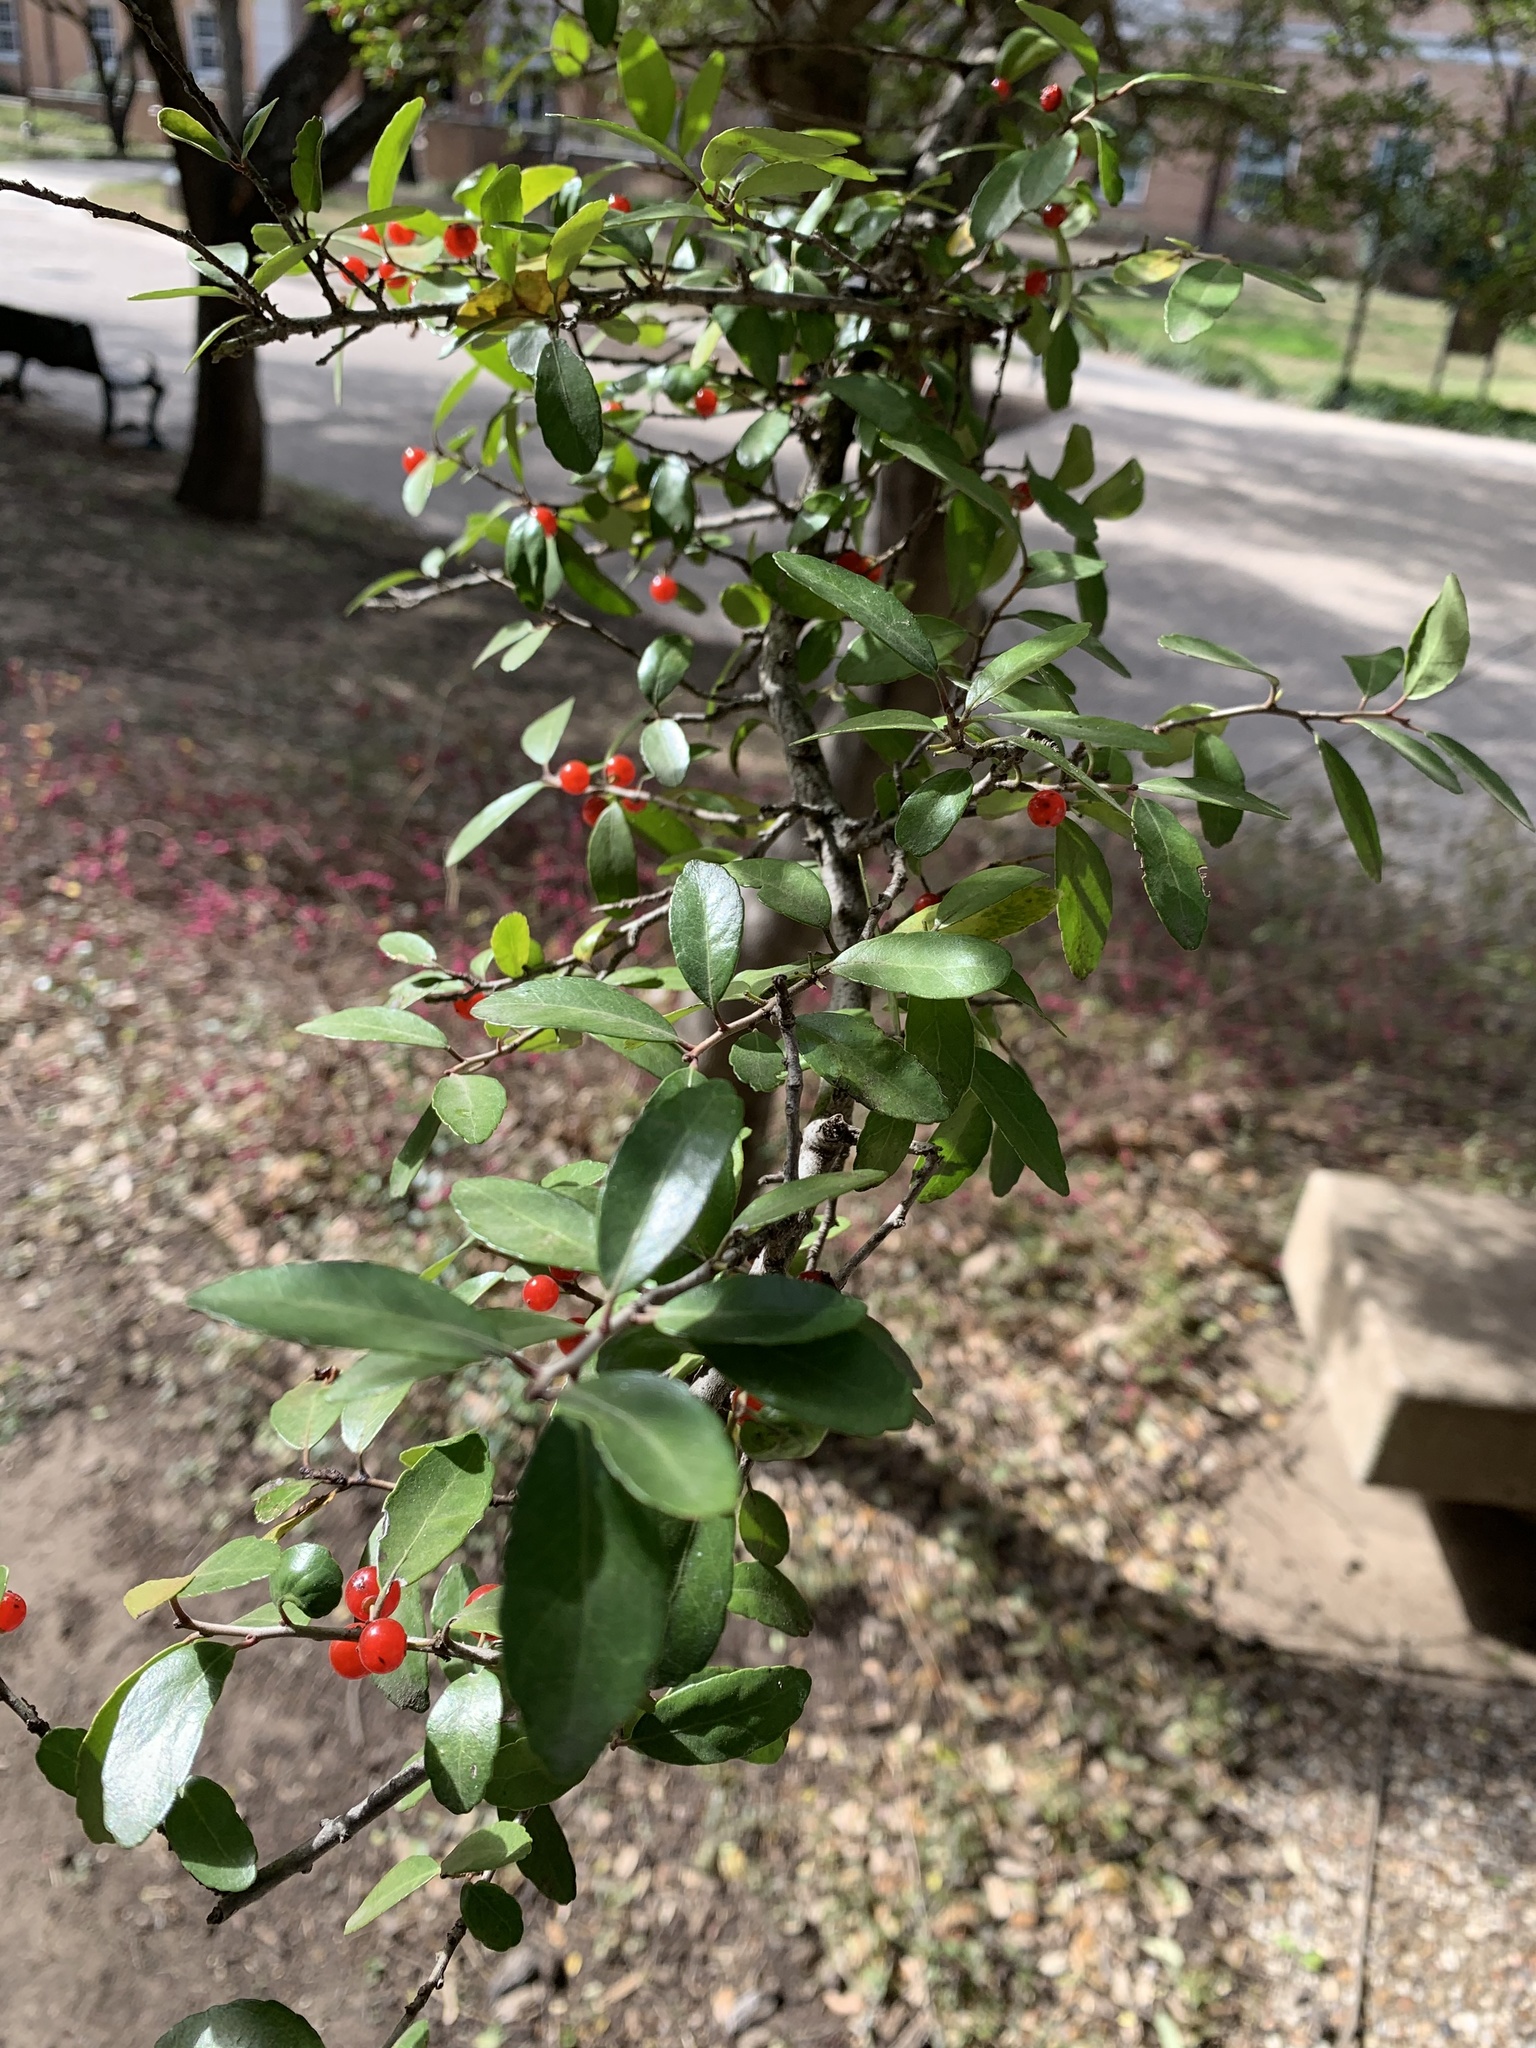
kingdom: Plantae
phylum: Tracheophyta
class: Magnoliopsida
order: Aquifoliales
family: Aquifoliaceae
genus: Ilex
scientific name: Ilex vomitoria
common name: Yaupon holly
